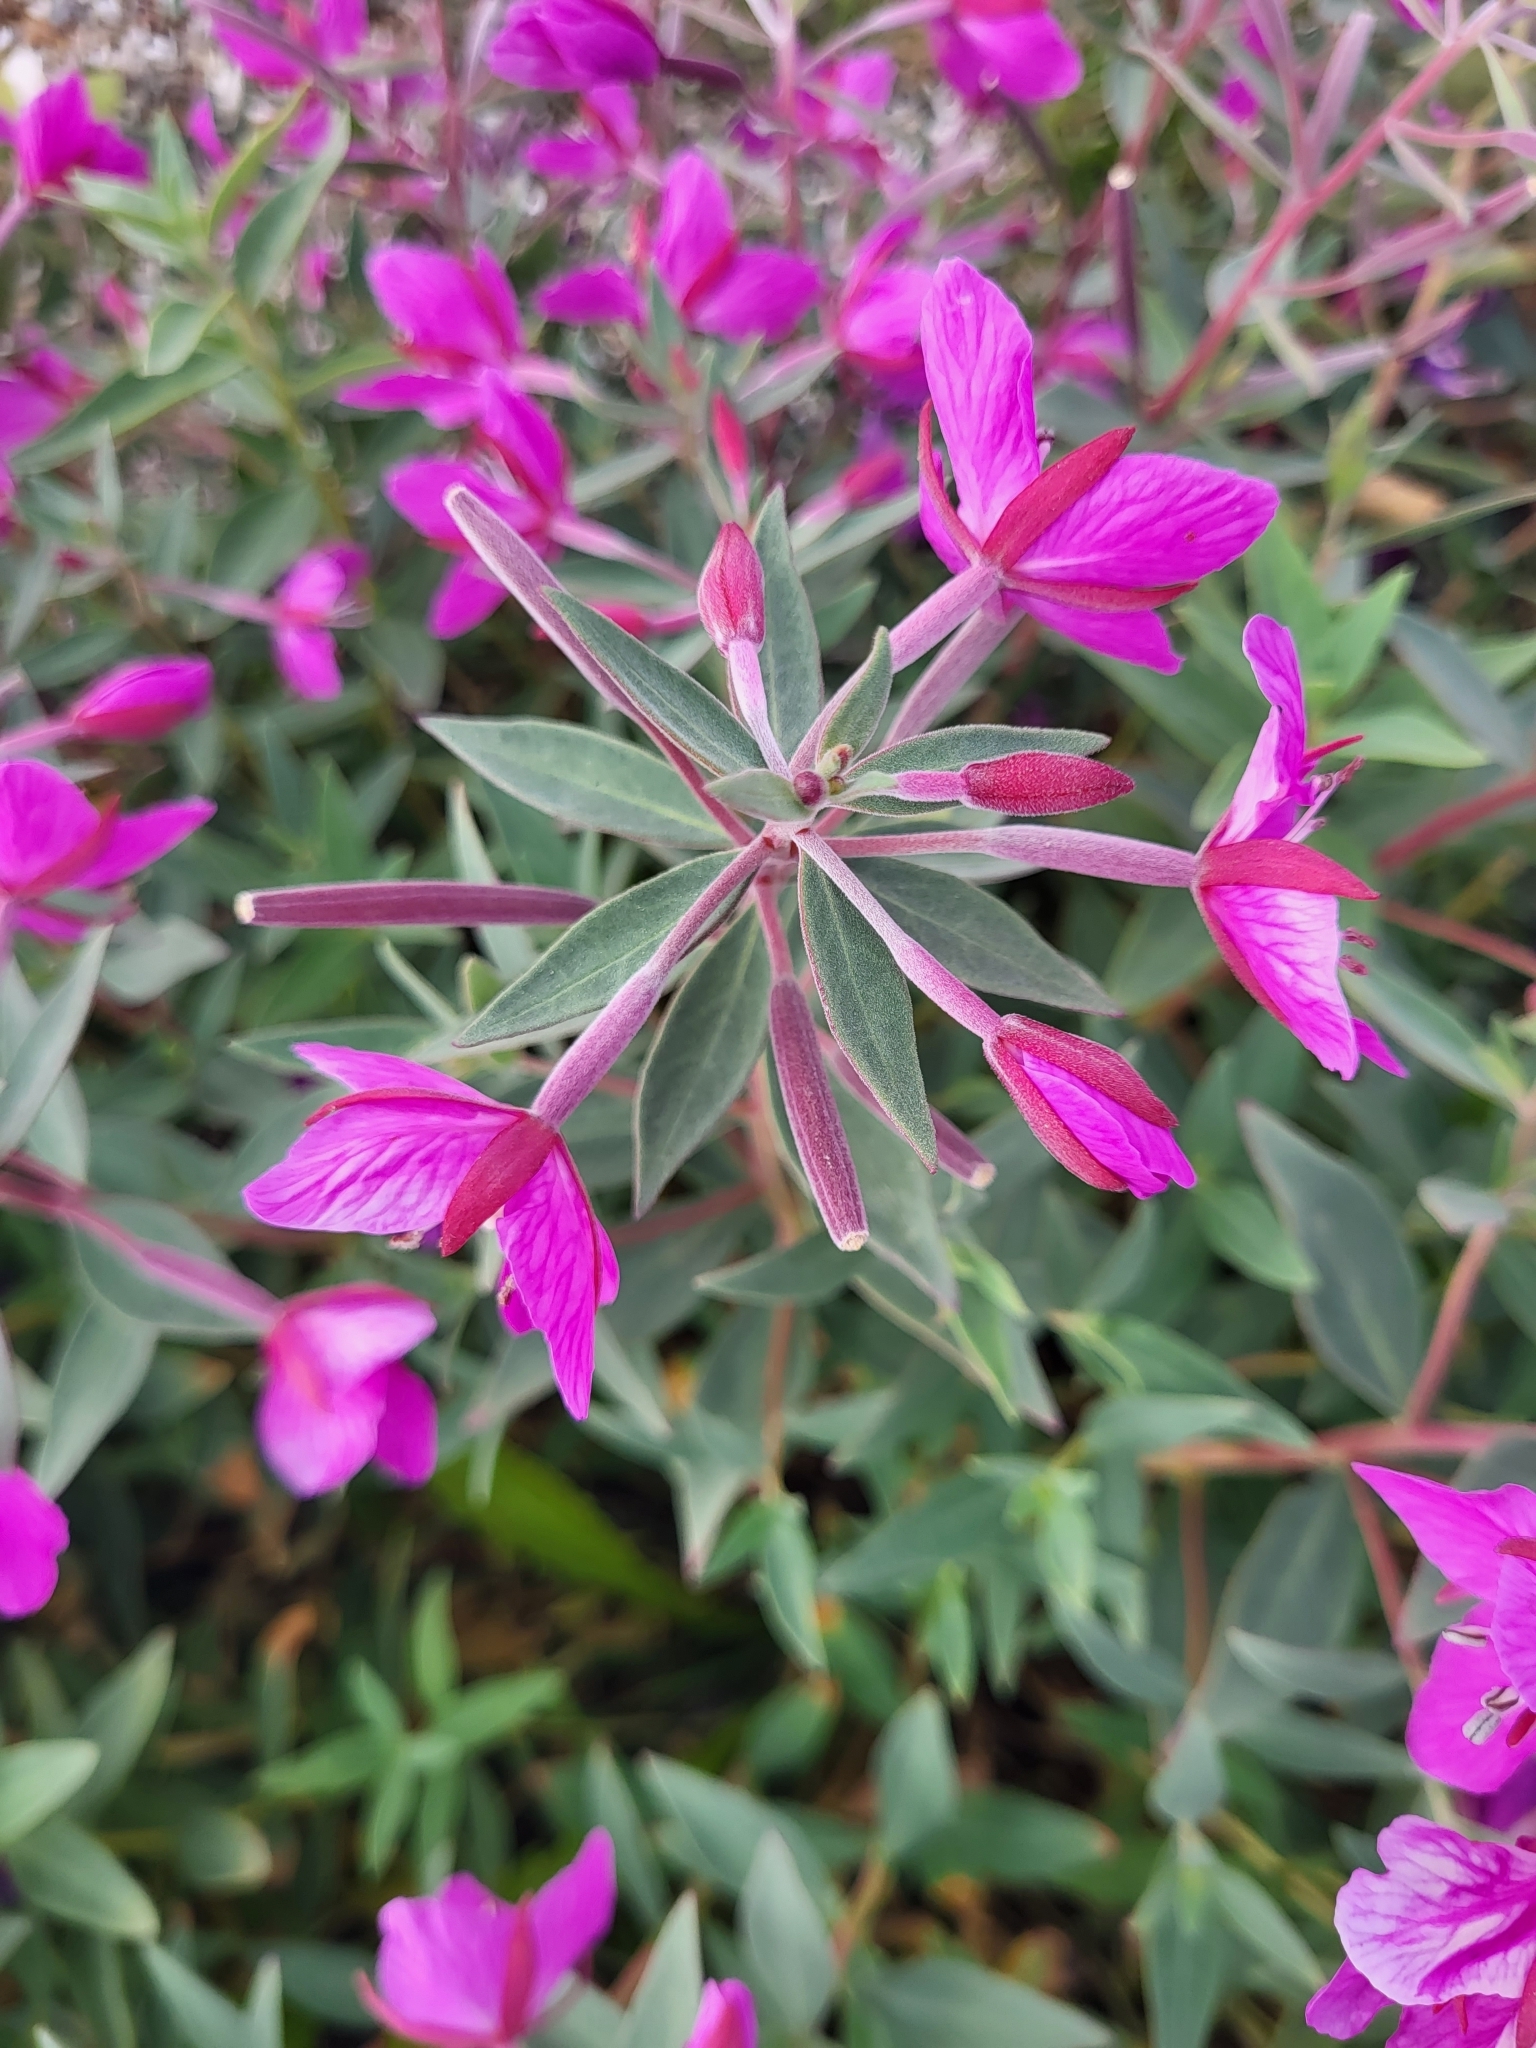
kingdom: Plantae
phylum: Tracheophyta
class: Magnoliopsida
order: Myrtales
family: Onagraceae
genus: Chamaenerion
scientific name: Chamaenerion latifolium
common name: Dwarf fireweed
